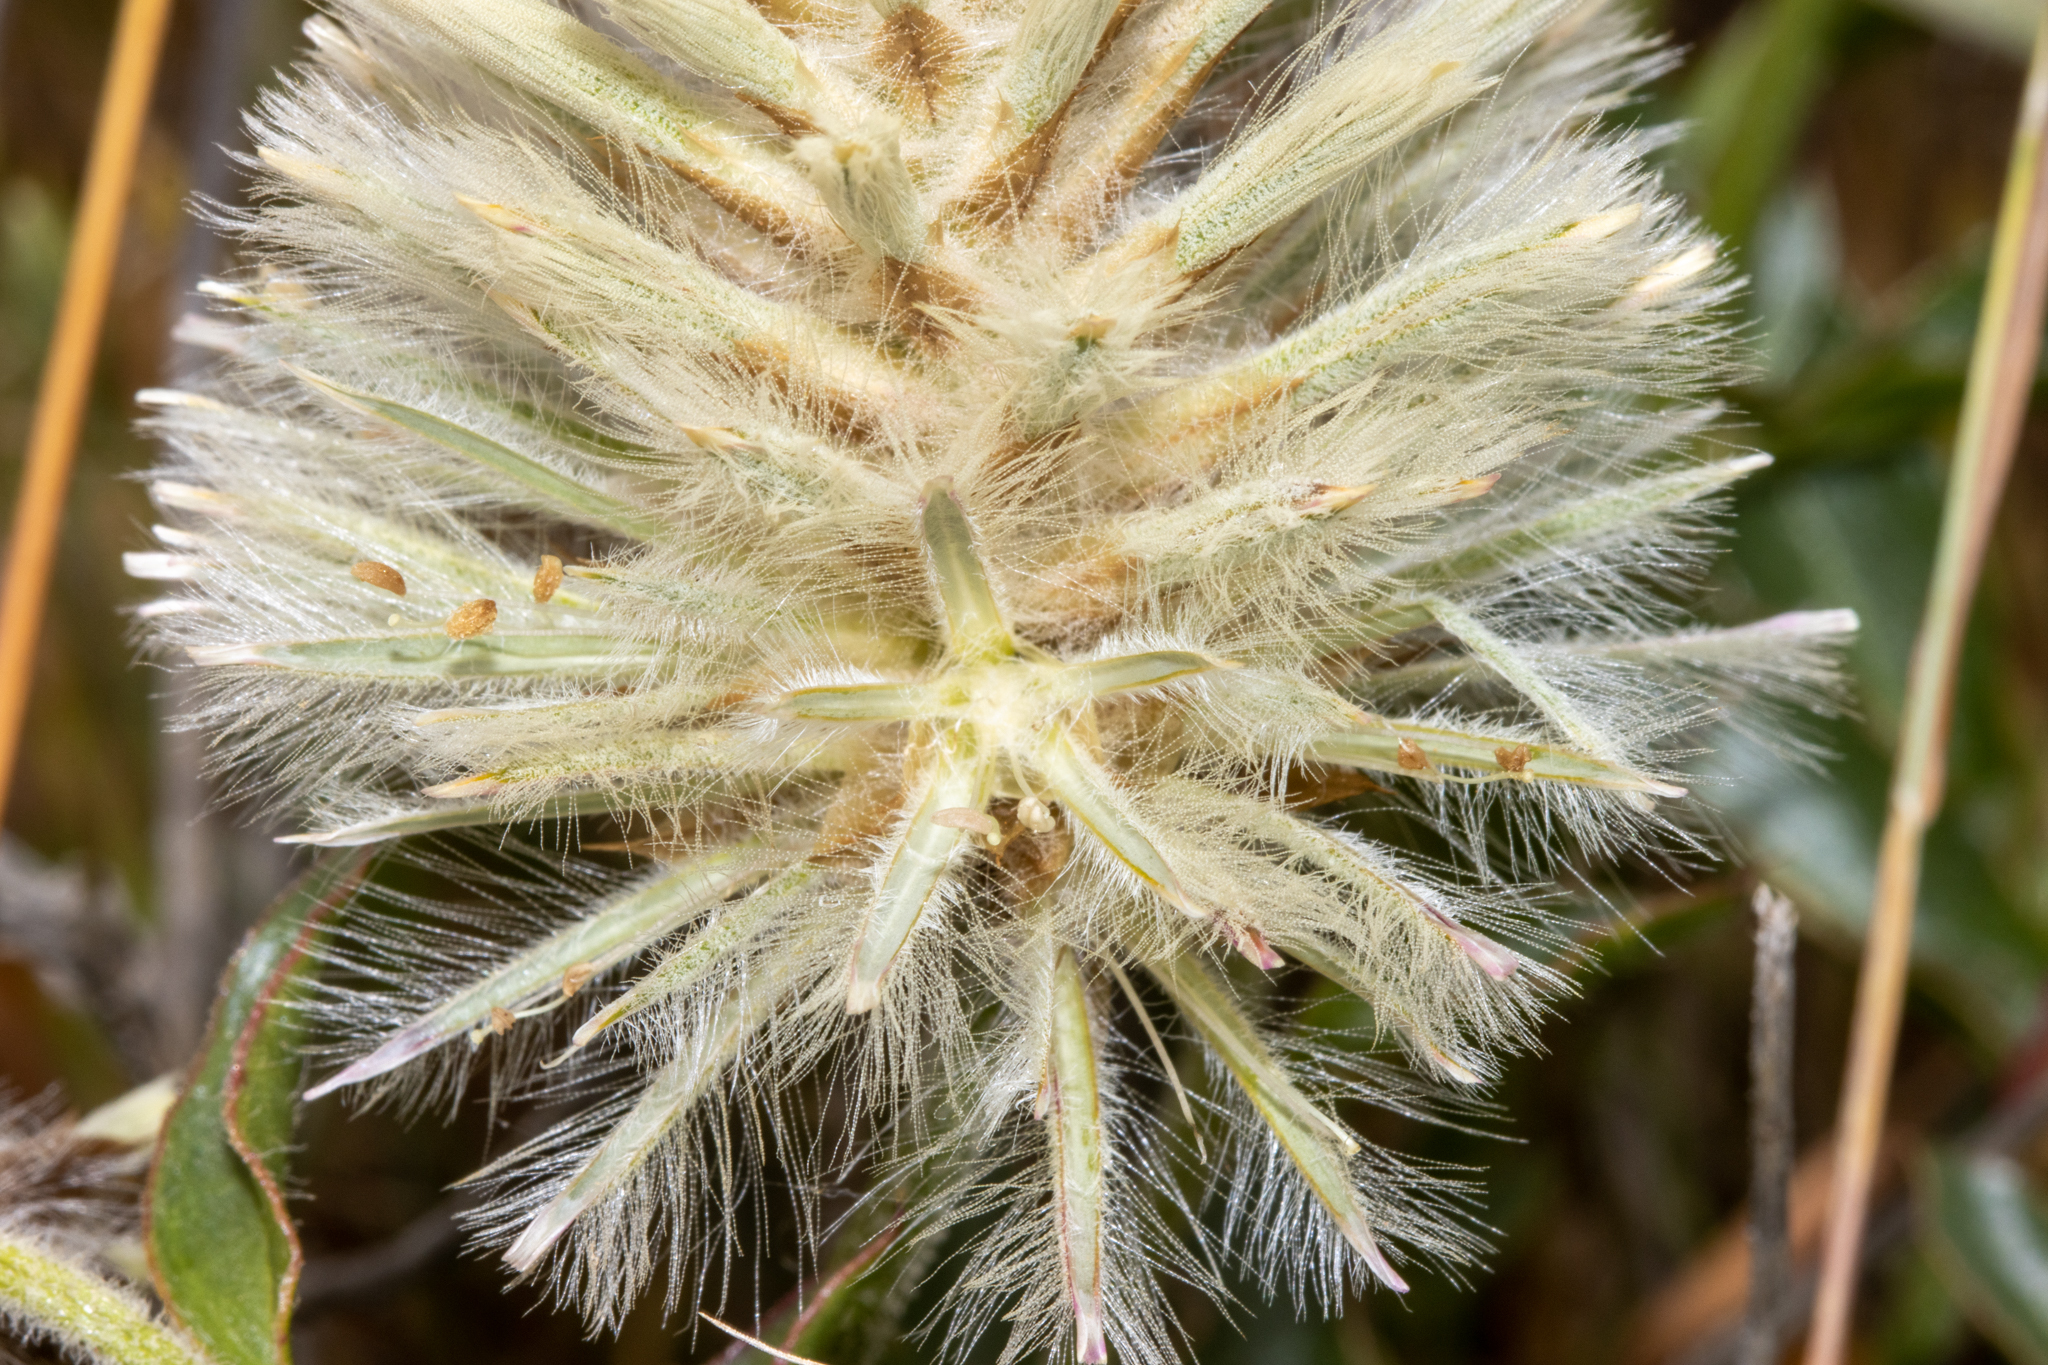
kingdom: Plantae
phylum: Tracheophyta
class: Magnoliopsida
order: Caryophyllales
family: Amaranthaceae
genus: Ptilotus
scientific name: Ptilotus angustifolius
